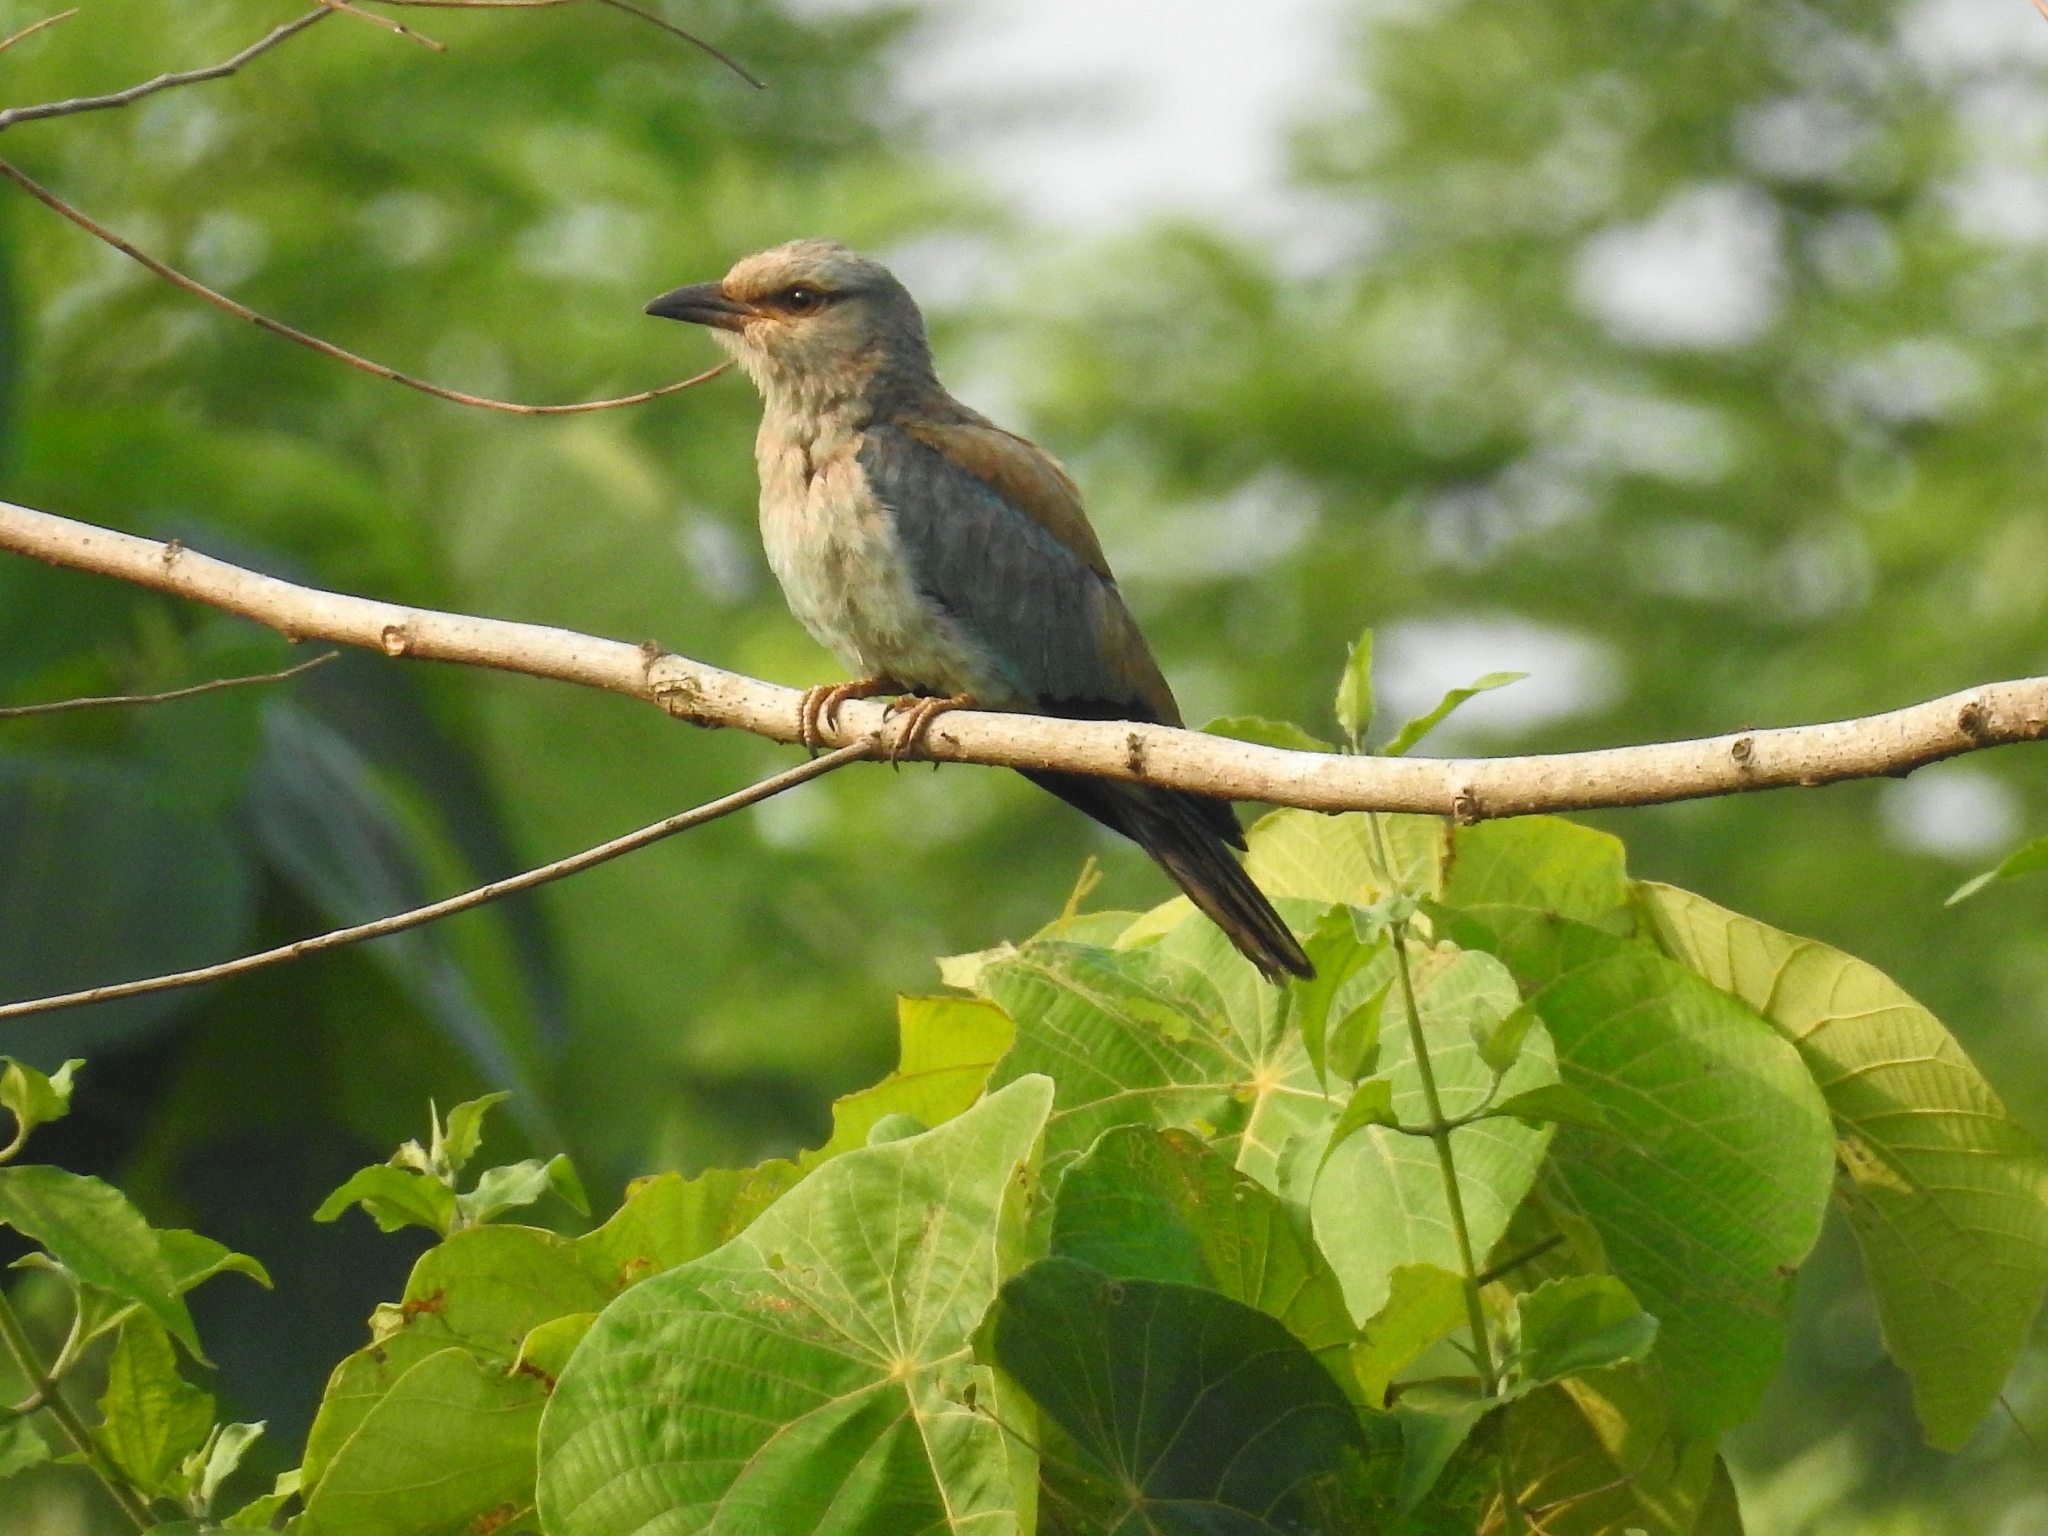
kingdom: Animalia
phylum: Chordata
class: Aves
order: Coraciiformes
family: Coraciidae
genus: Coracias
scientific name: Coracias garrulus
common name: European roller
